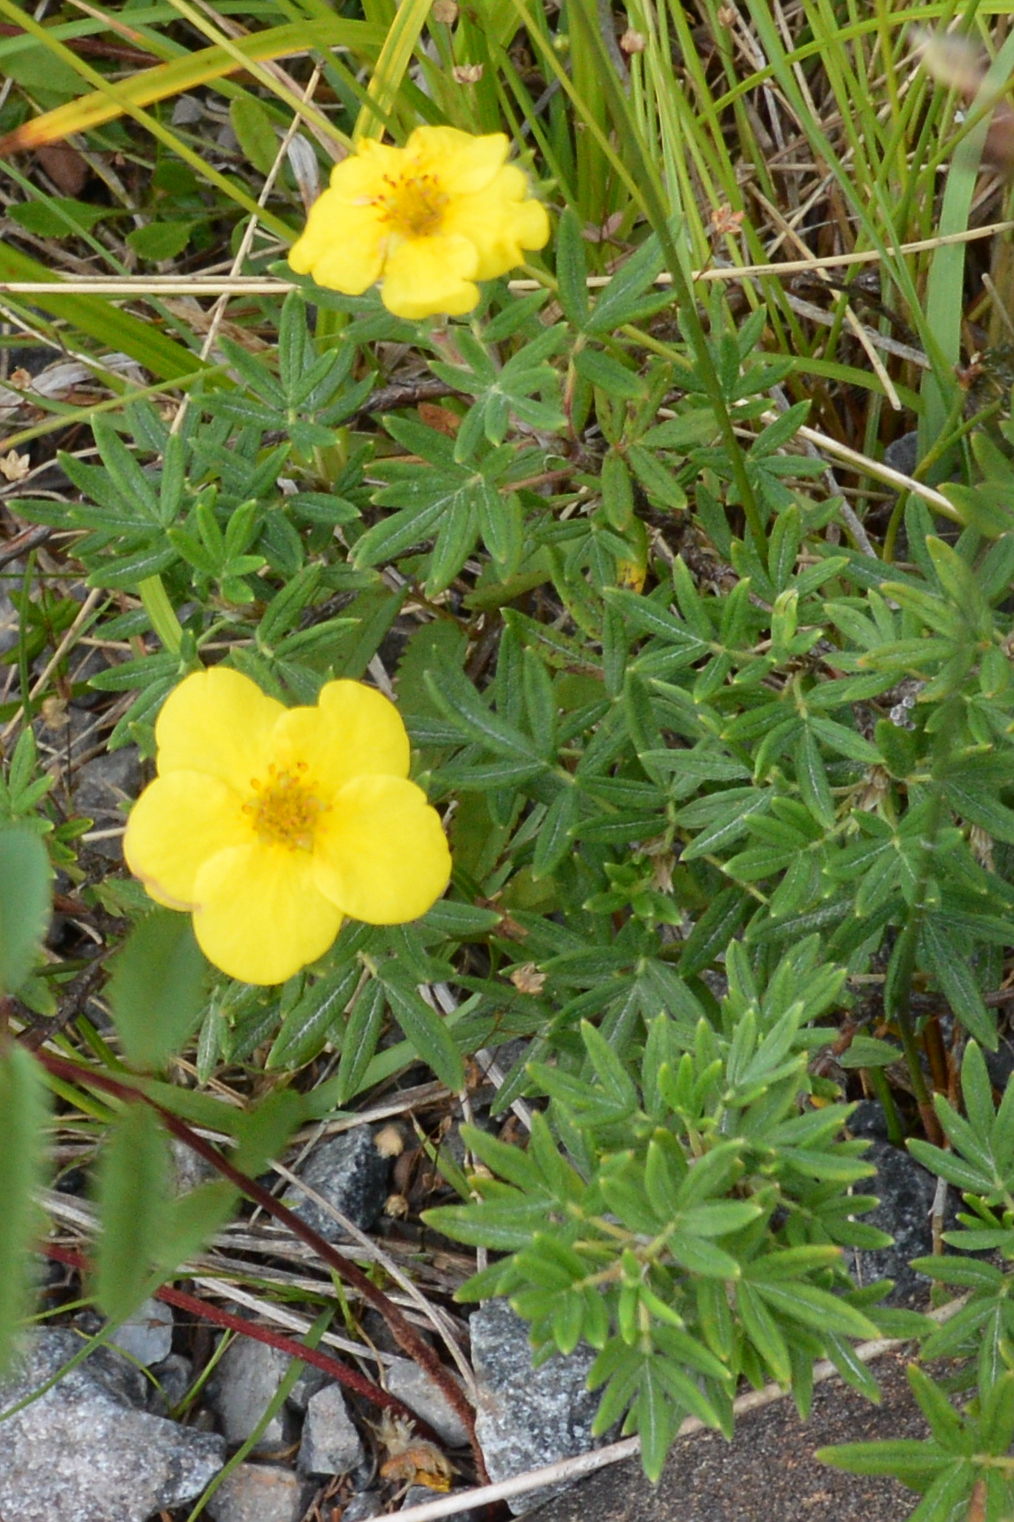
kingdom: Plantae
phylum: Tracheophyta
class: Magnoliopsida
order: Rosales
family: Rosaceae
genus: Dasiphora
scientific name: Dasiphora fruticosa
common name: Shrubby cinquefoil
